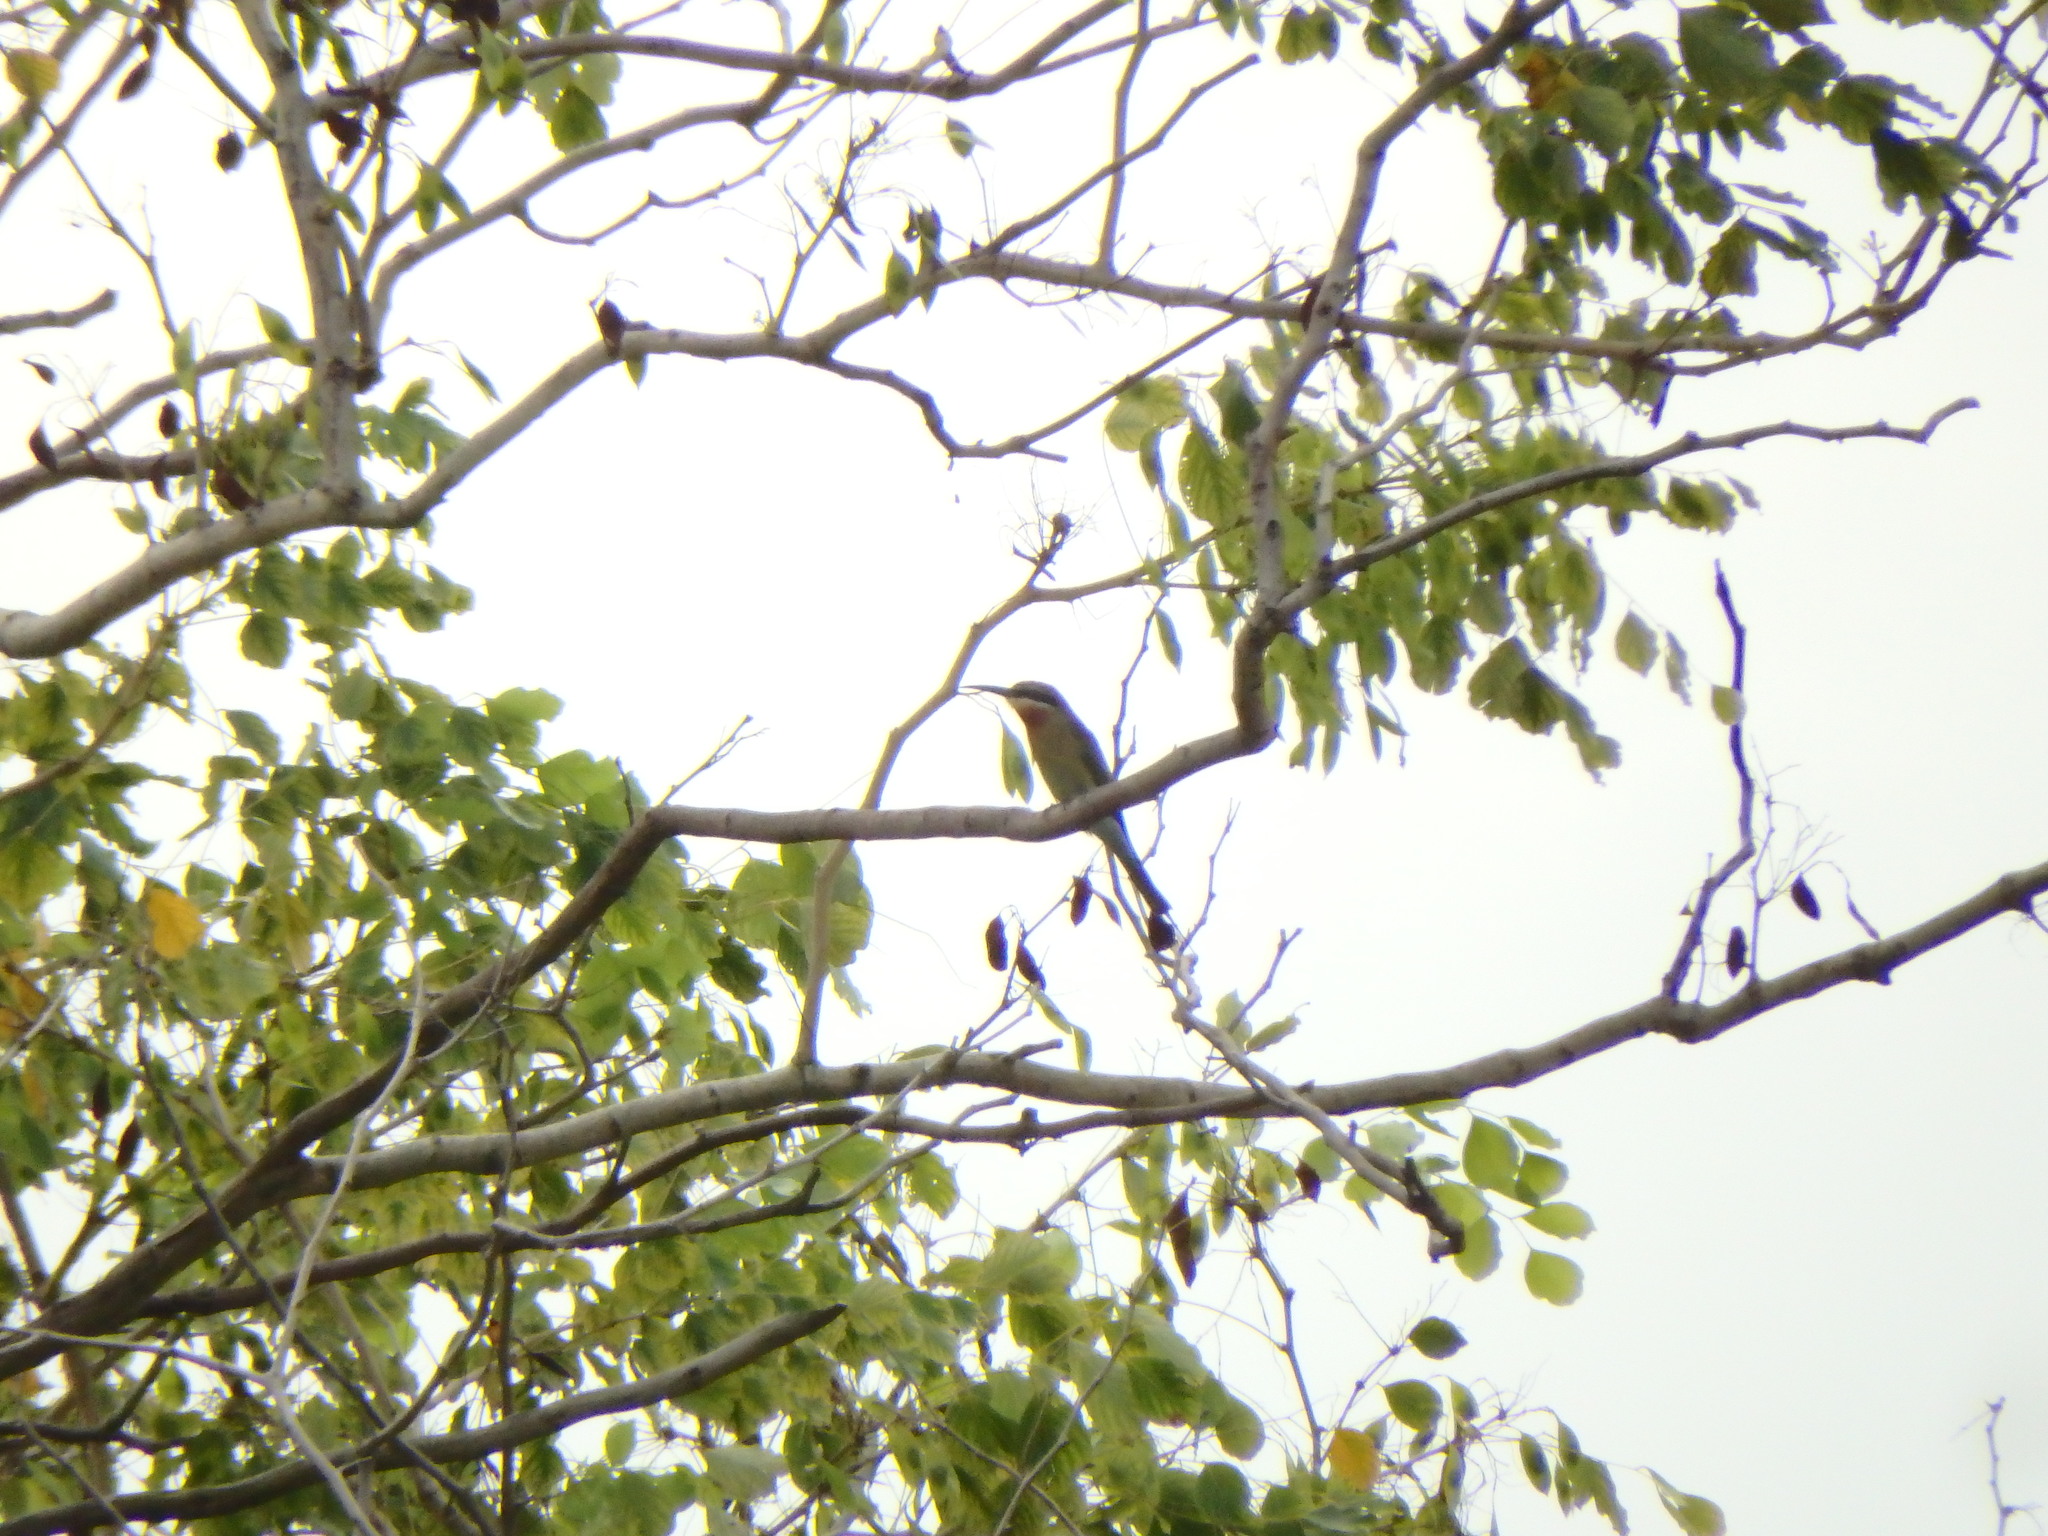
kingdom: Animalia
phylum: Chordata
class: Aves
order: Coraciiformes
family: Meropidae
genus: Merops
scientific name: Merops philippinus
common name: Blue-tailed bee-eater
